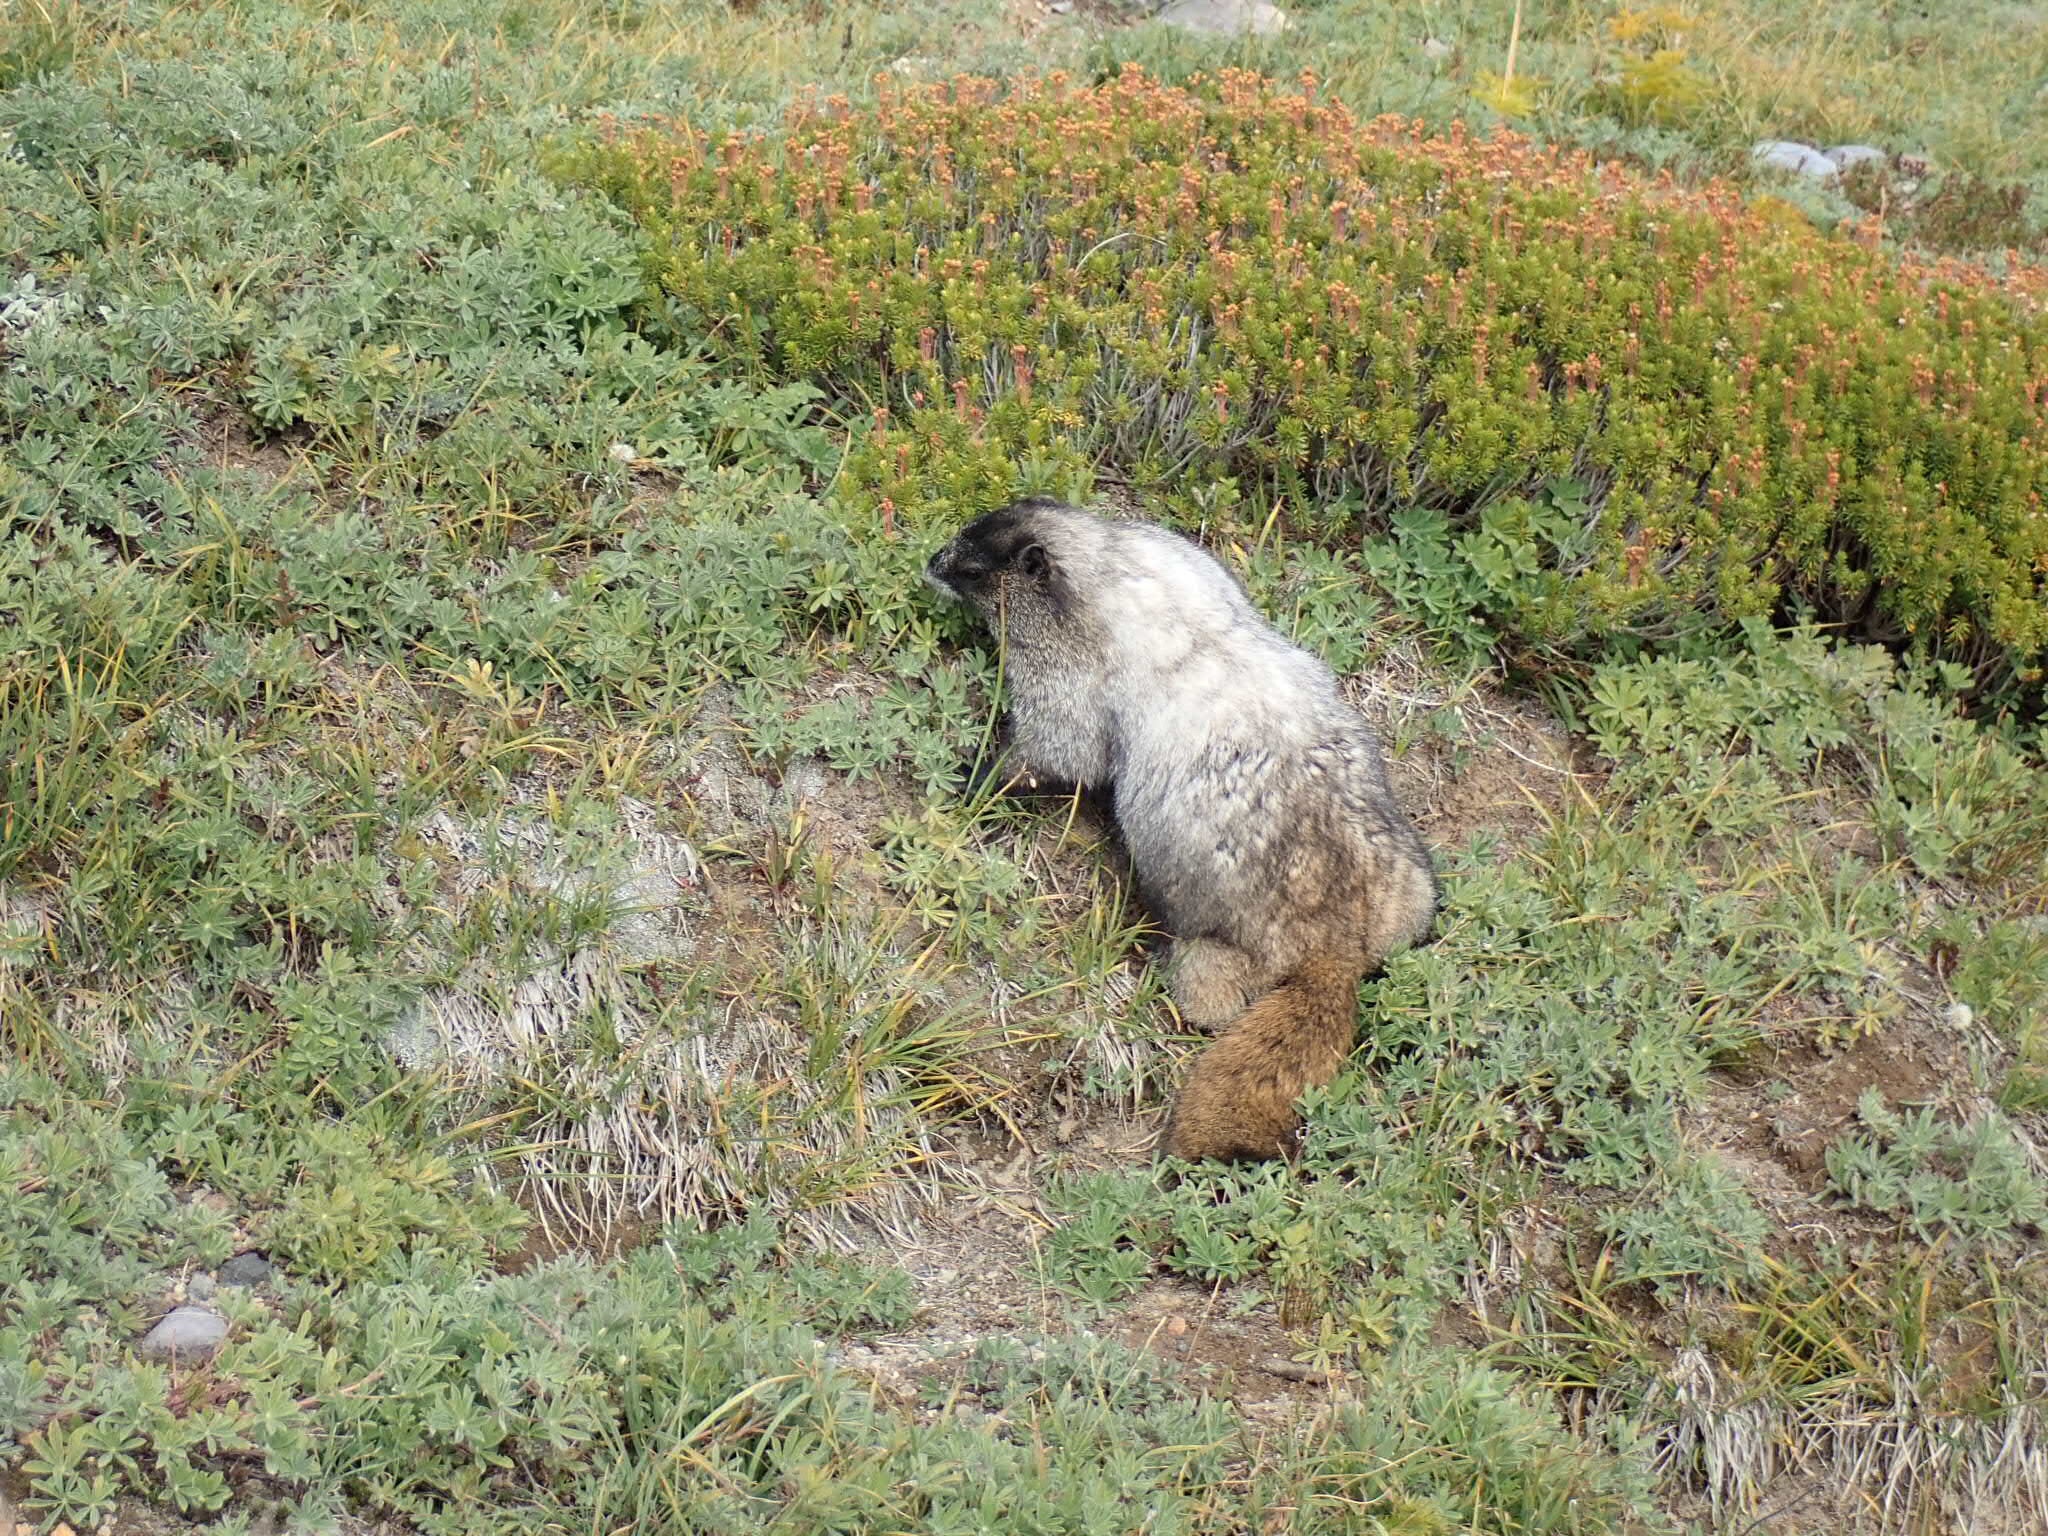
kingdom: Animalia
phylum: Chordata
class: Mammalia
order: Rodentia
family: Sciuridae
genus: Marmota
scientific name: Marmota caligata
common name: Hoary marmot
